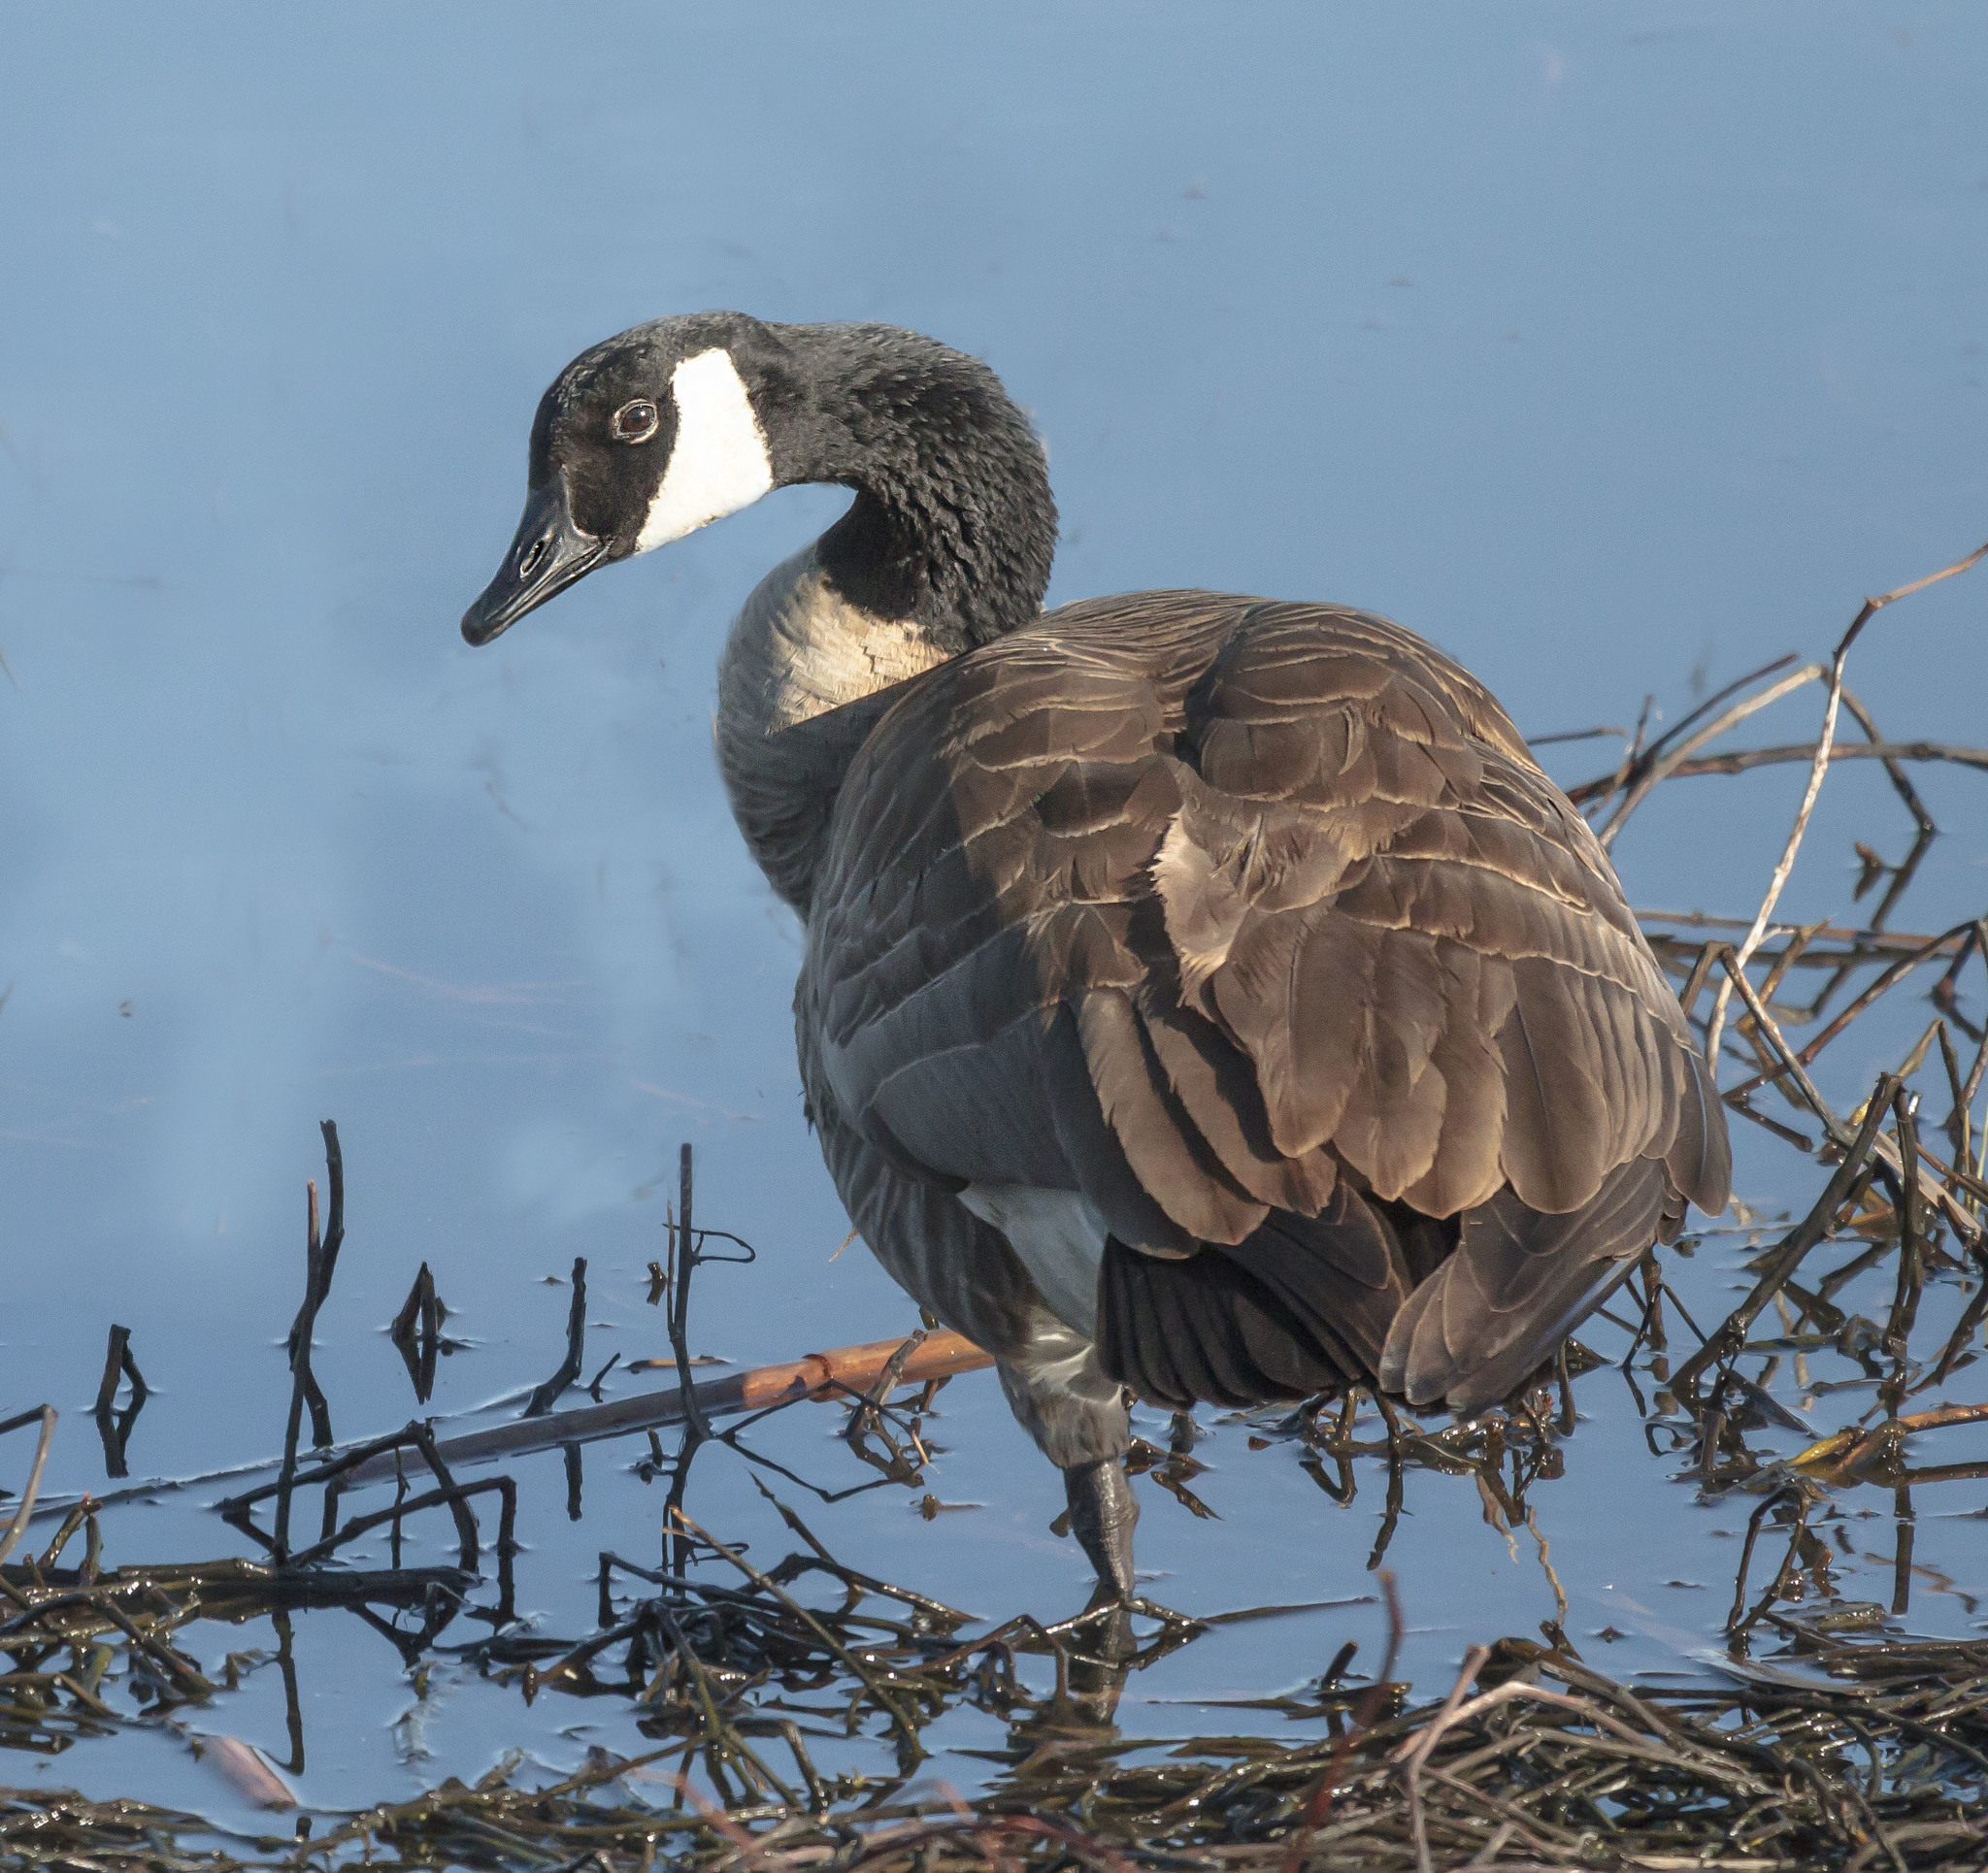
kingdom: Animalia
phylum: Chordata
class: Aves
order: Anseriformes
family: Anatidae
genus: Branta
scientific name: Branta canadensis
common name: Canada goose
